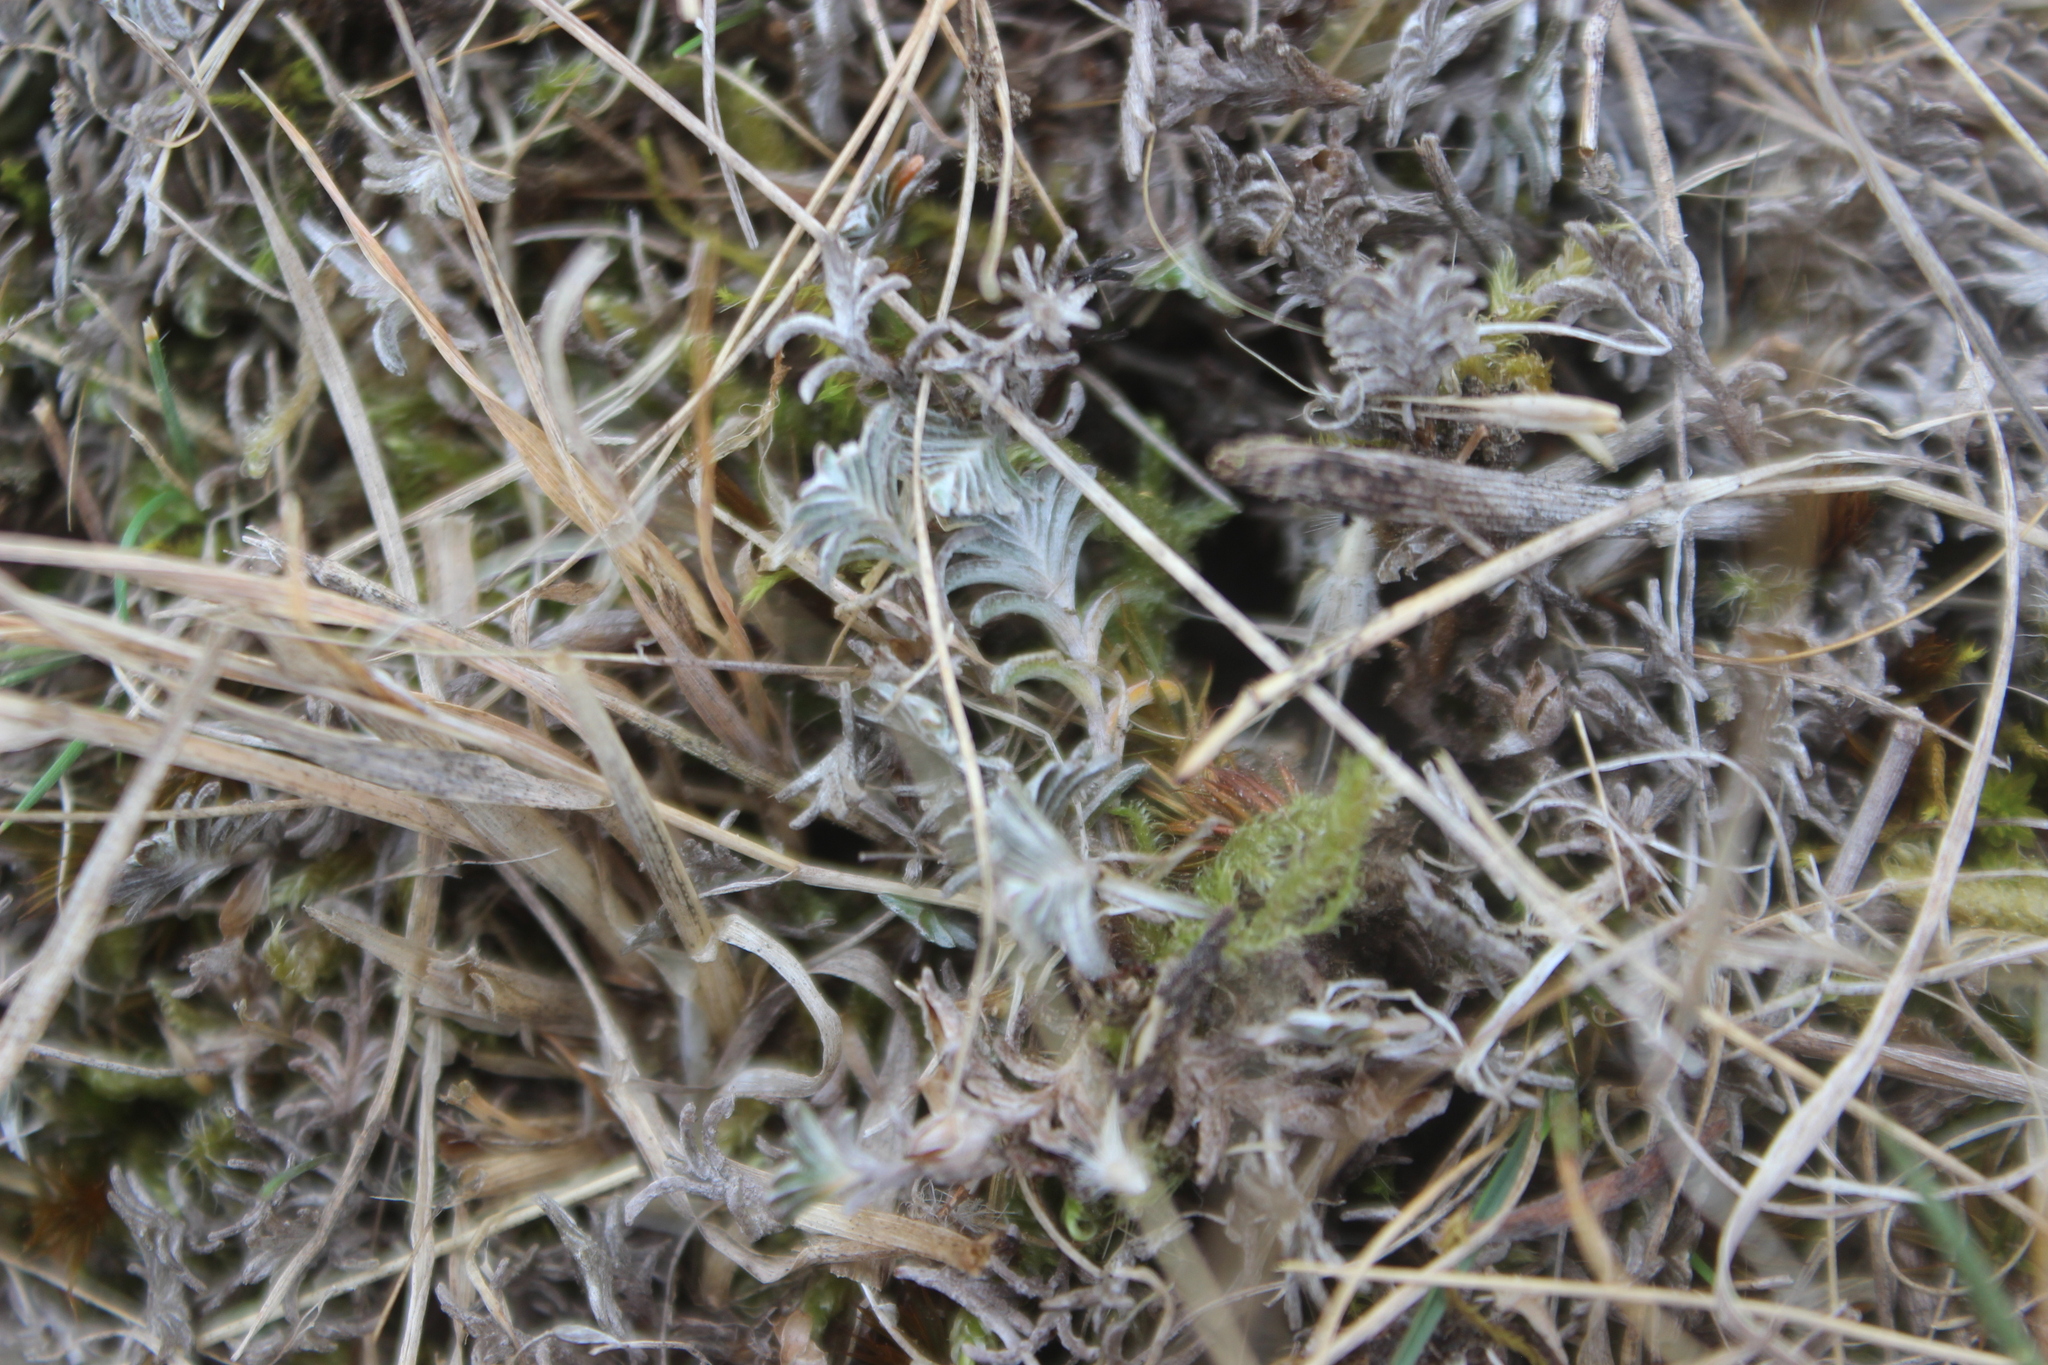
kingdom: Plantae
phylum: Tracheophyta
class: Magnoliopsida
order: Asterales
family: Asteraceae
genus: Raoulia
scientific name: Raoulia monroi
